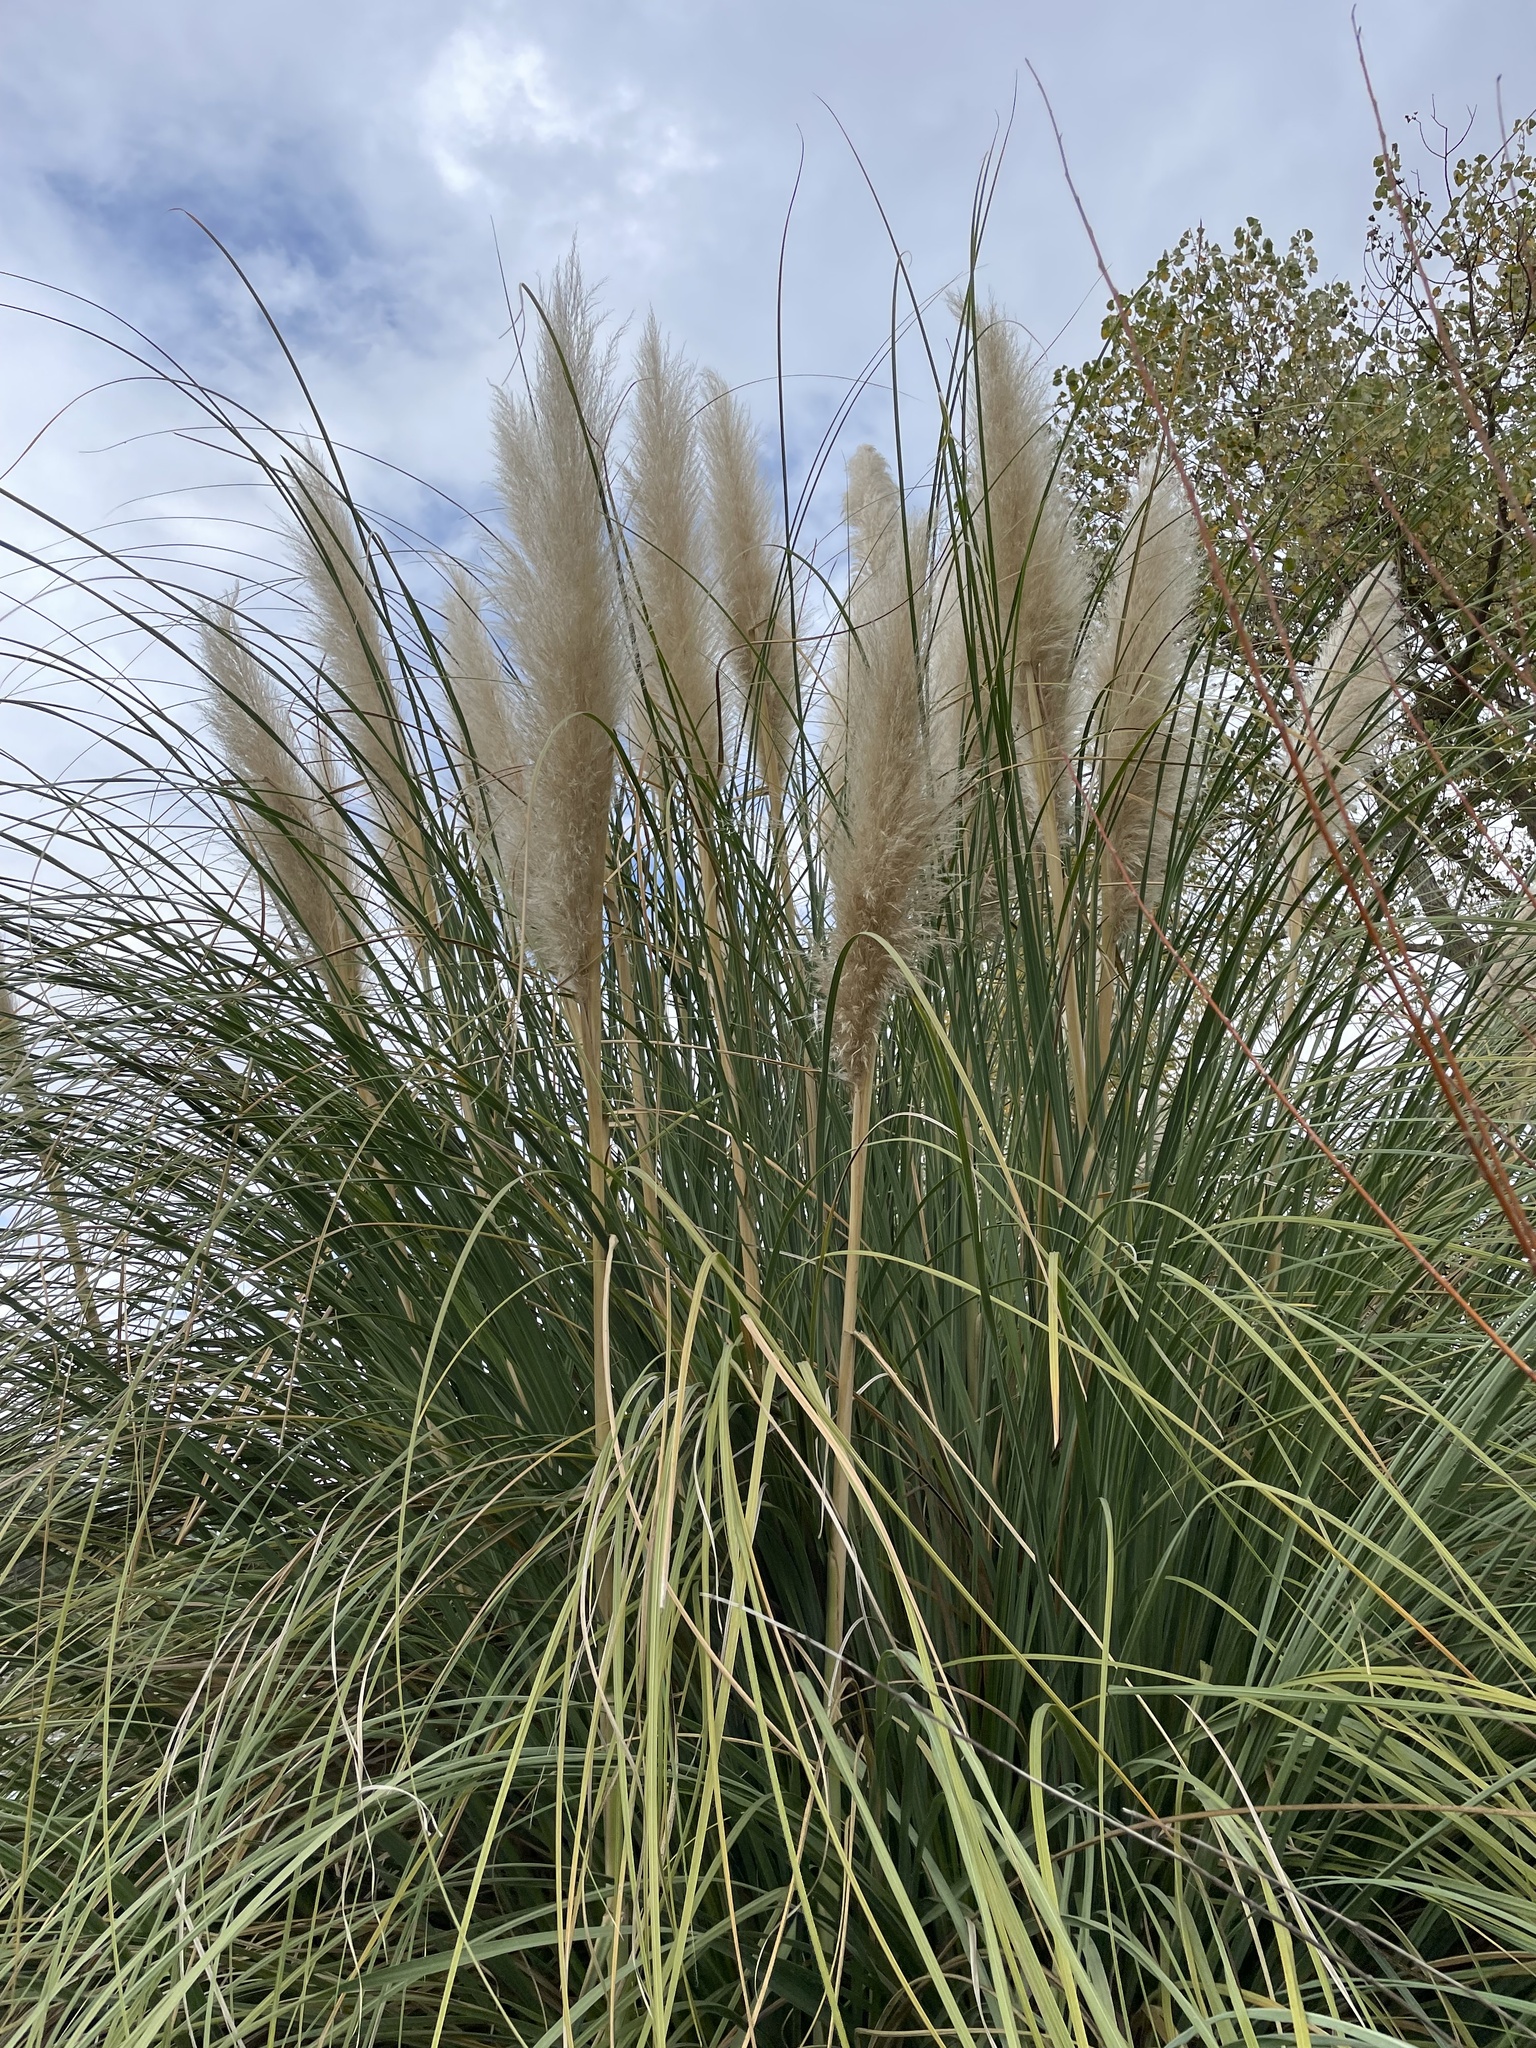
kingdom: Plantae
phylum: Tracheophyta
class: Liliopsida
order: Poales
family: Poaceae
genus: Cortaderia
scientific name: Cortaderia selloana
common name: Uruguayan pampas grass
